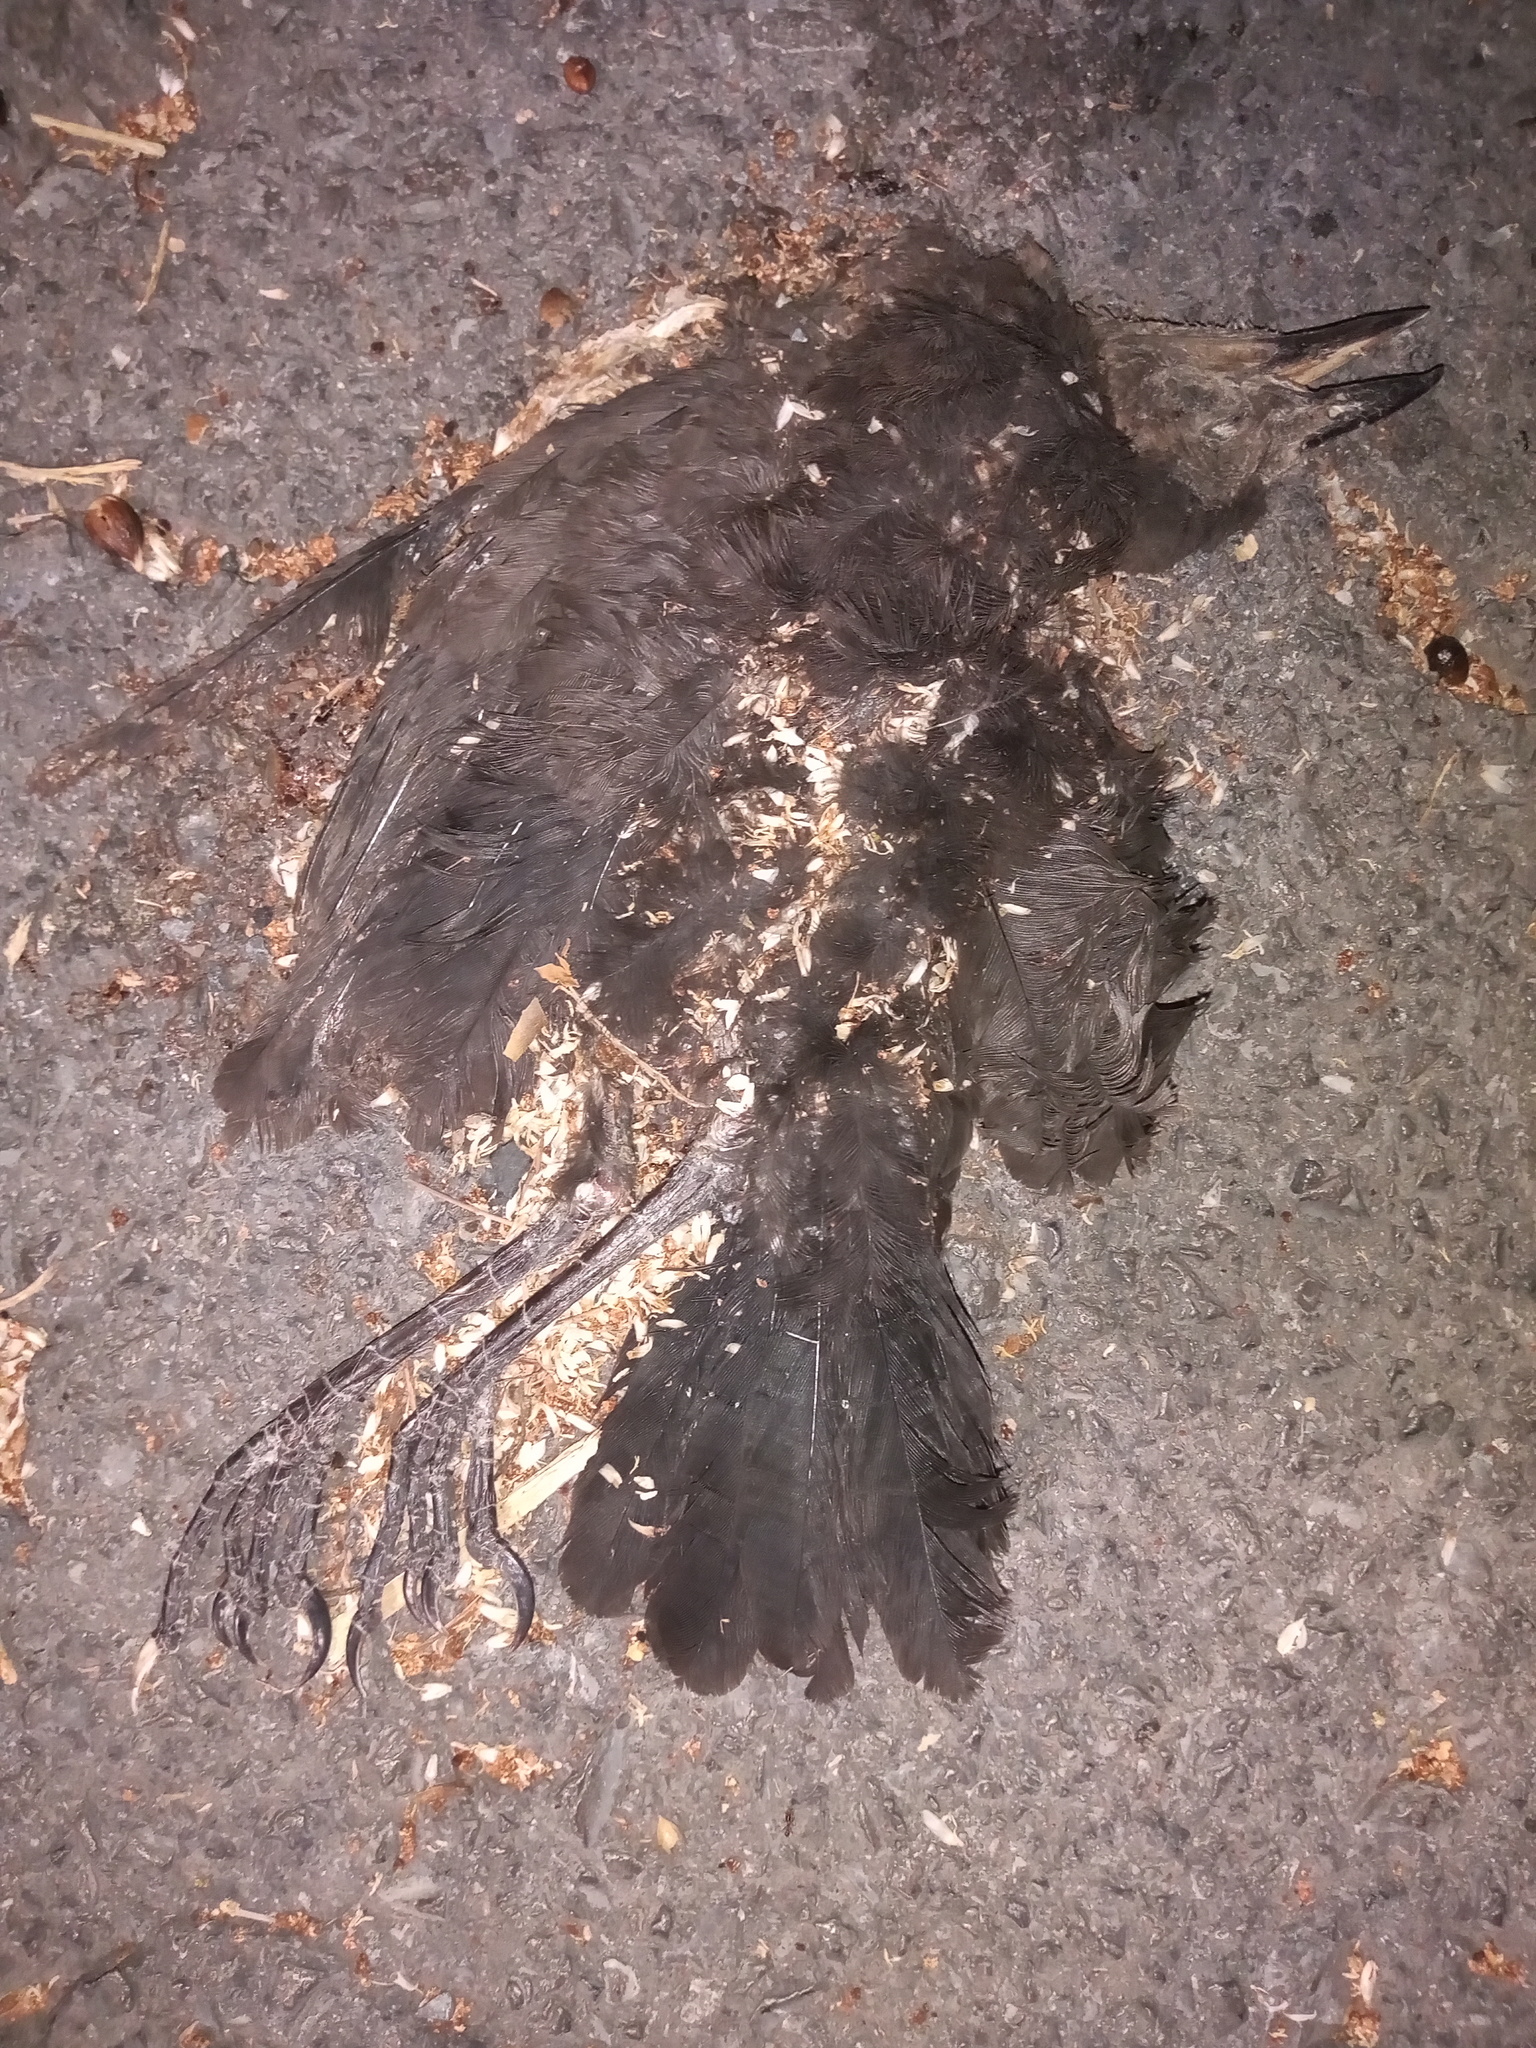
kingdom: Animalia
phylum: Chordata
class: Aves
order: Passeriformes
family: Icteridae
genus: Quiscalus
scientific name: Quiscalus mexicanus
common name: Great-tailed grackle
